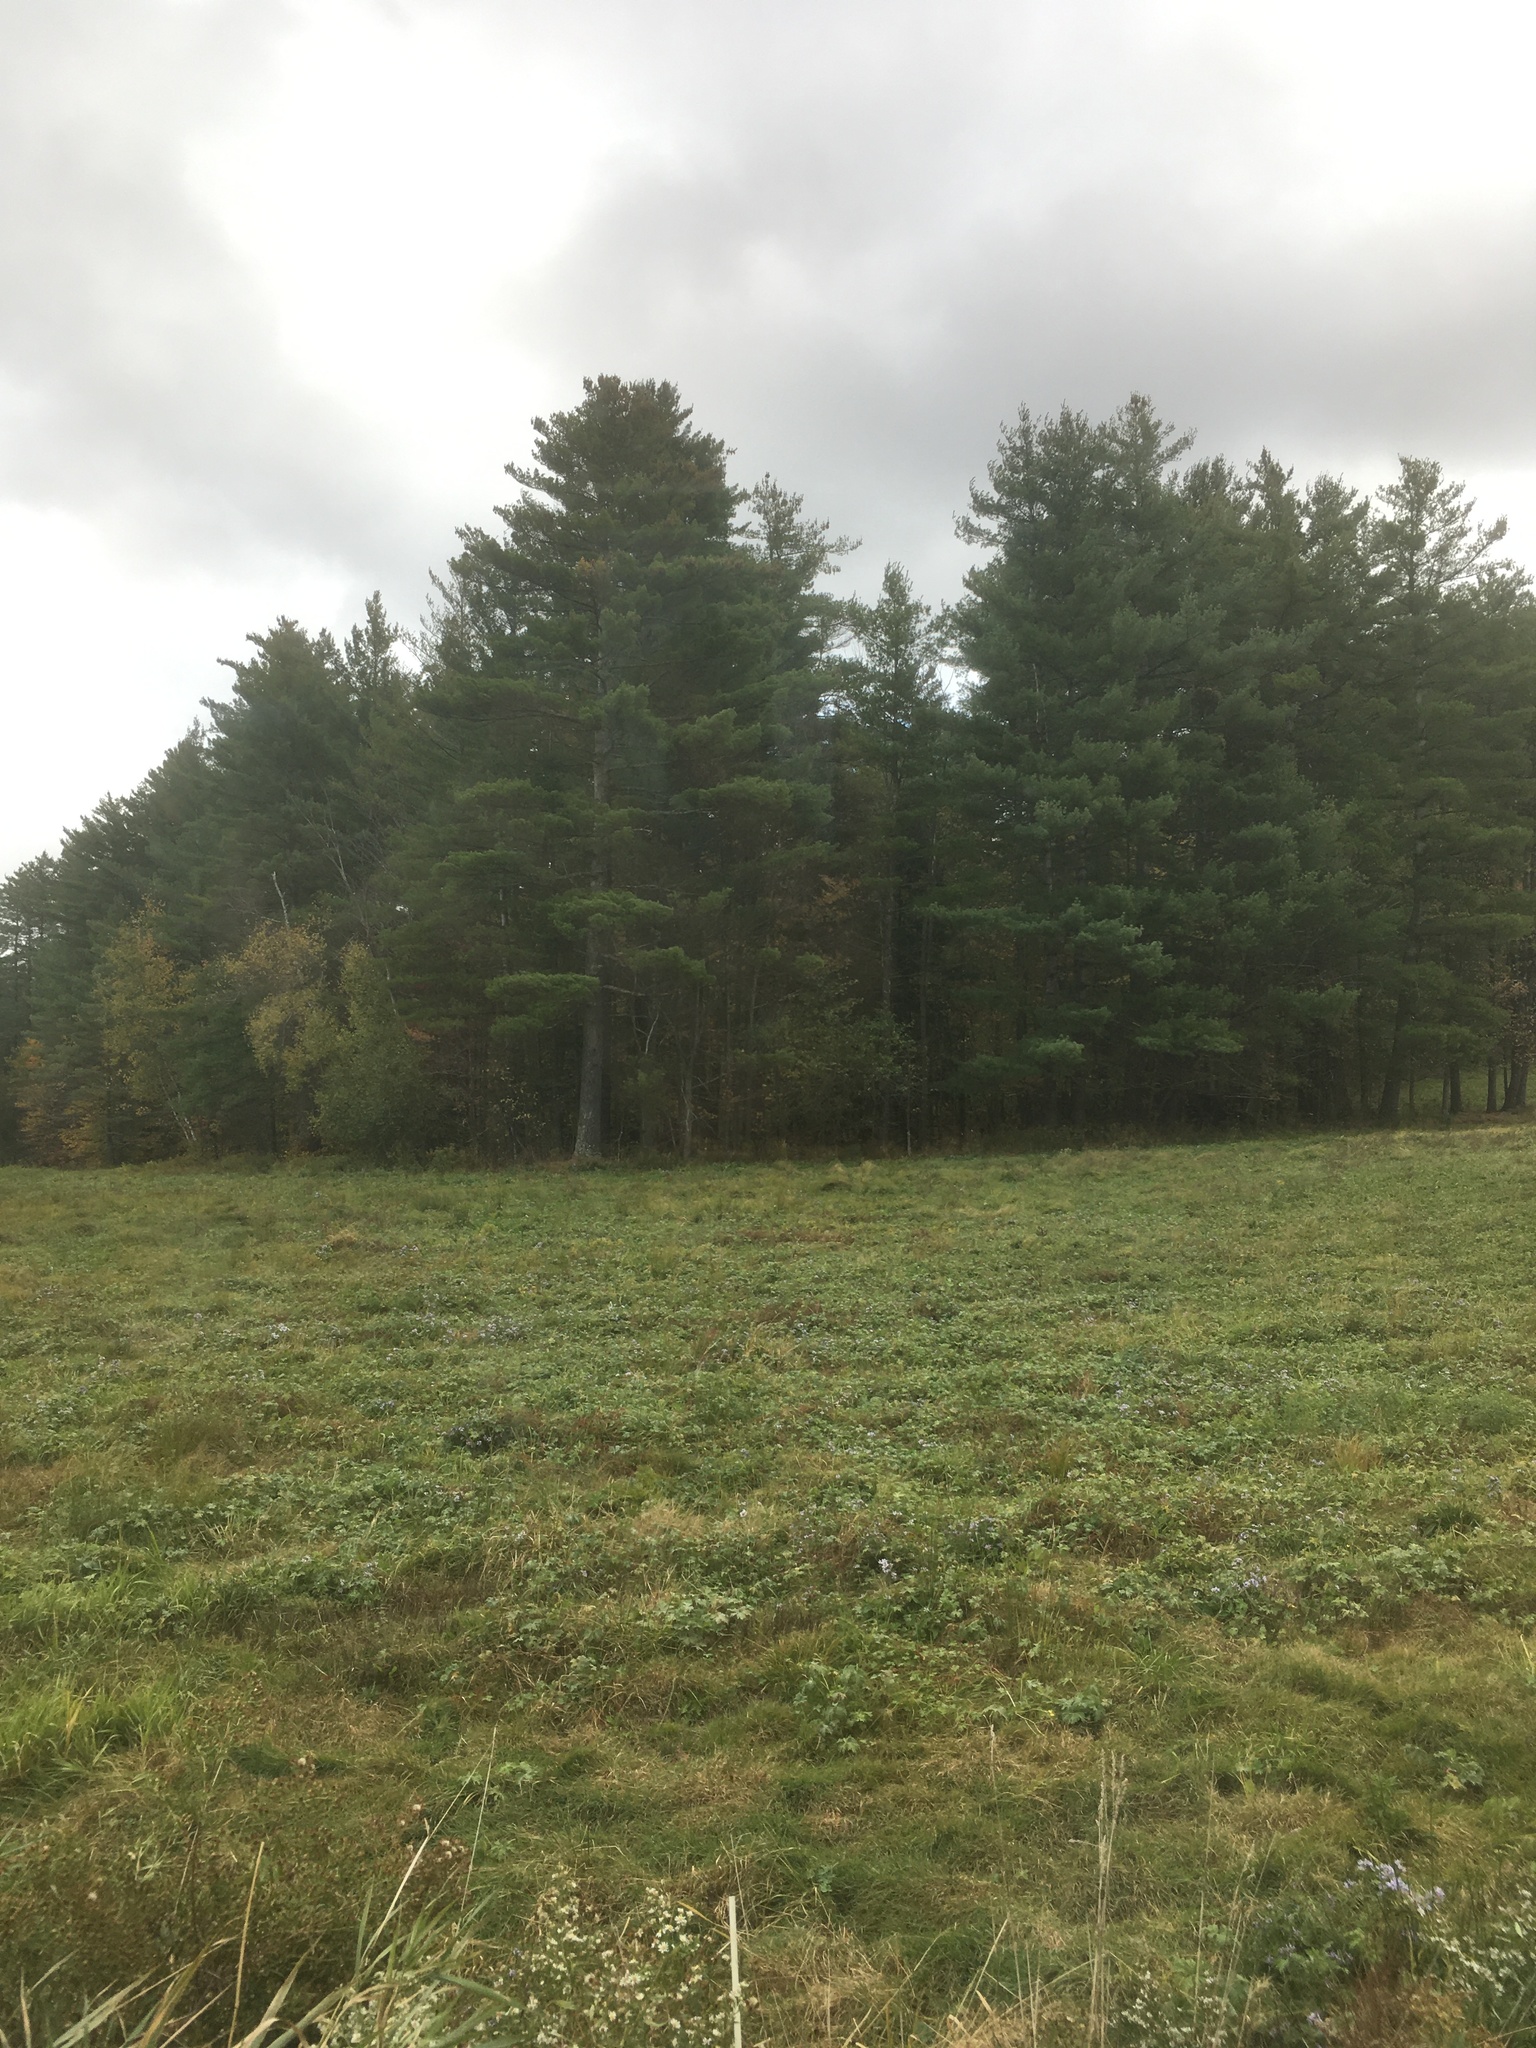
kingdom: Plantae
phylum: Tracheophyta
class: Pinopsida
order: Pinales
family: Pinaceae
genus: Pinus
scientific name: Pinus strobus
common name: Weymouth pine
